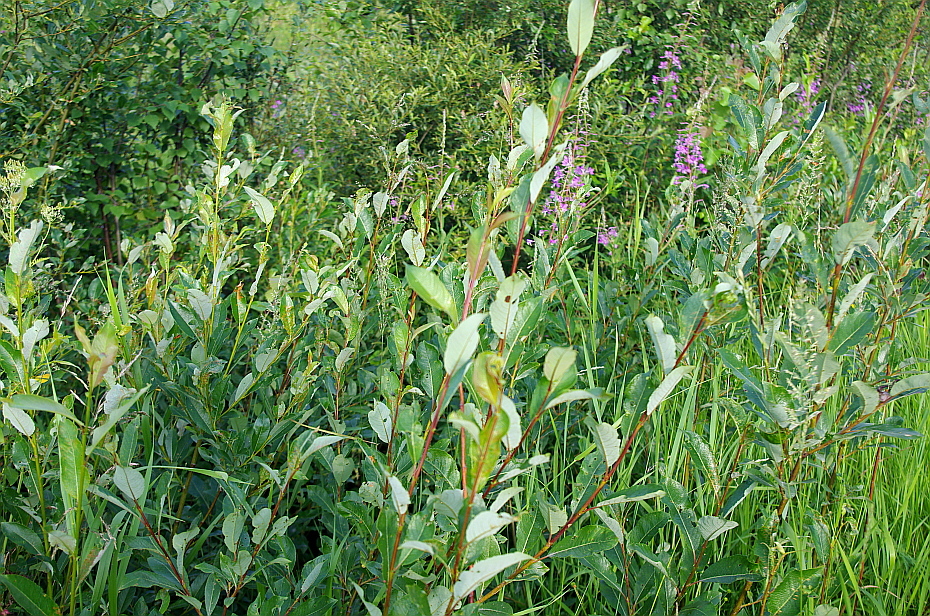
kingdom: Plantae
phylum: Tracheophyta
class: Magnoliopsida
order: Malpighiales
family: Salicaceae
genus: Salix
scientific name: Salix phylicifolia
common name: Tea-leaved willow
